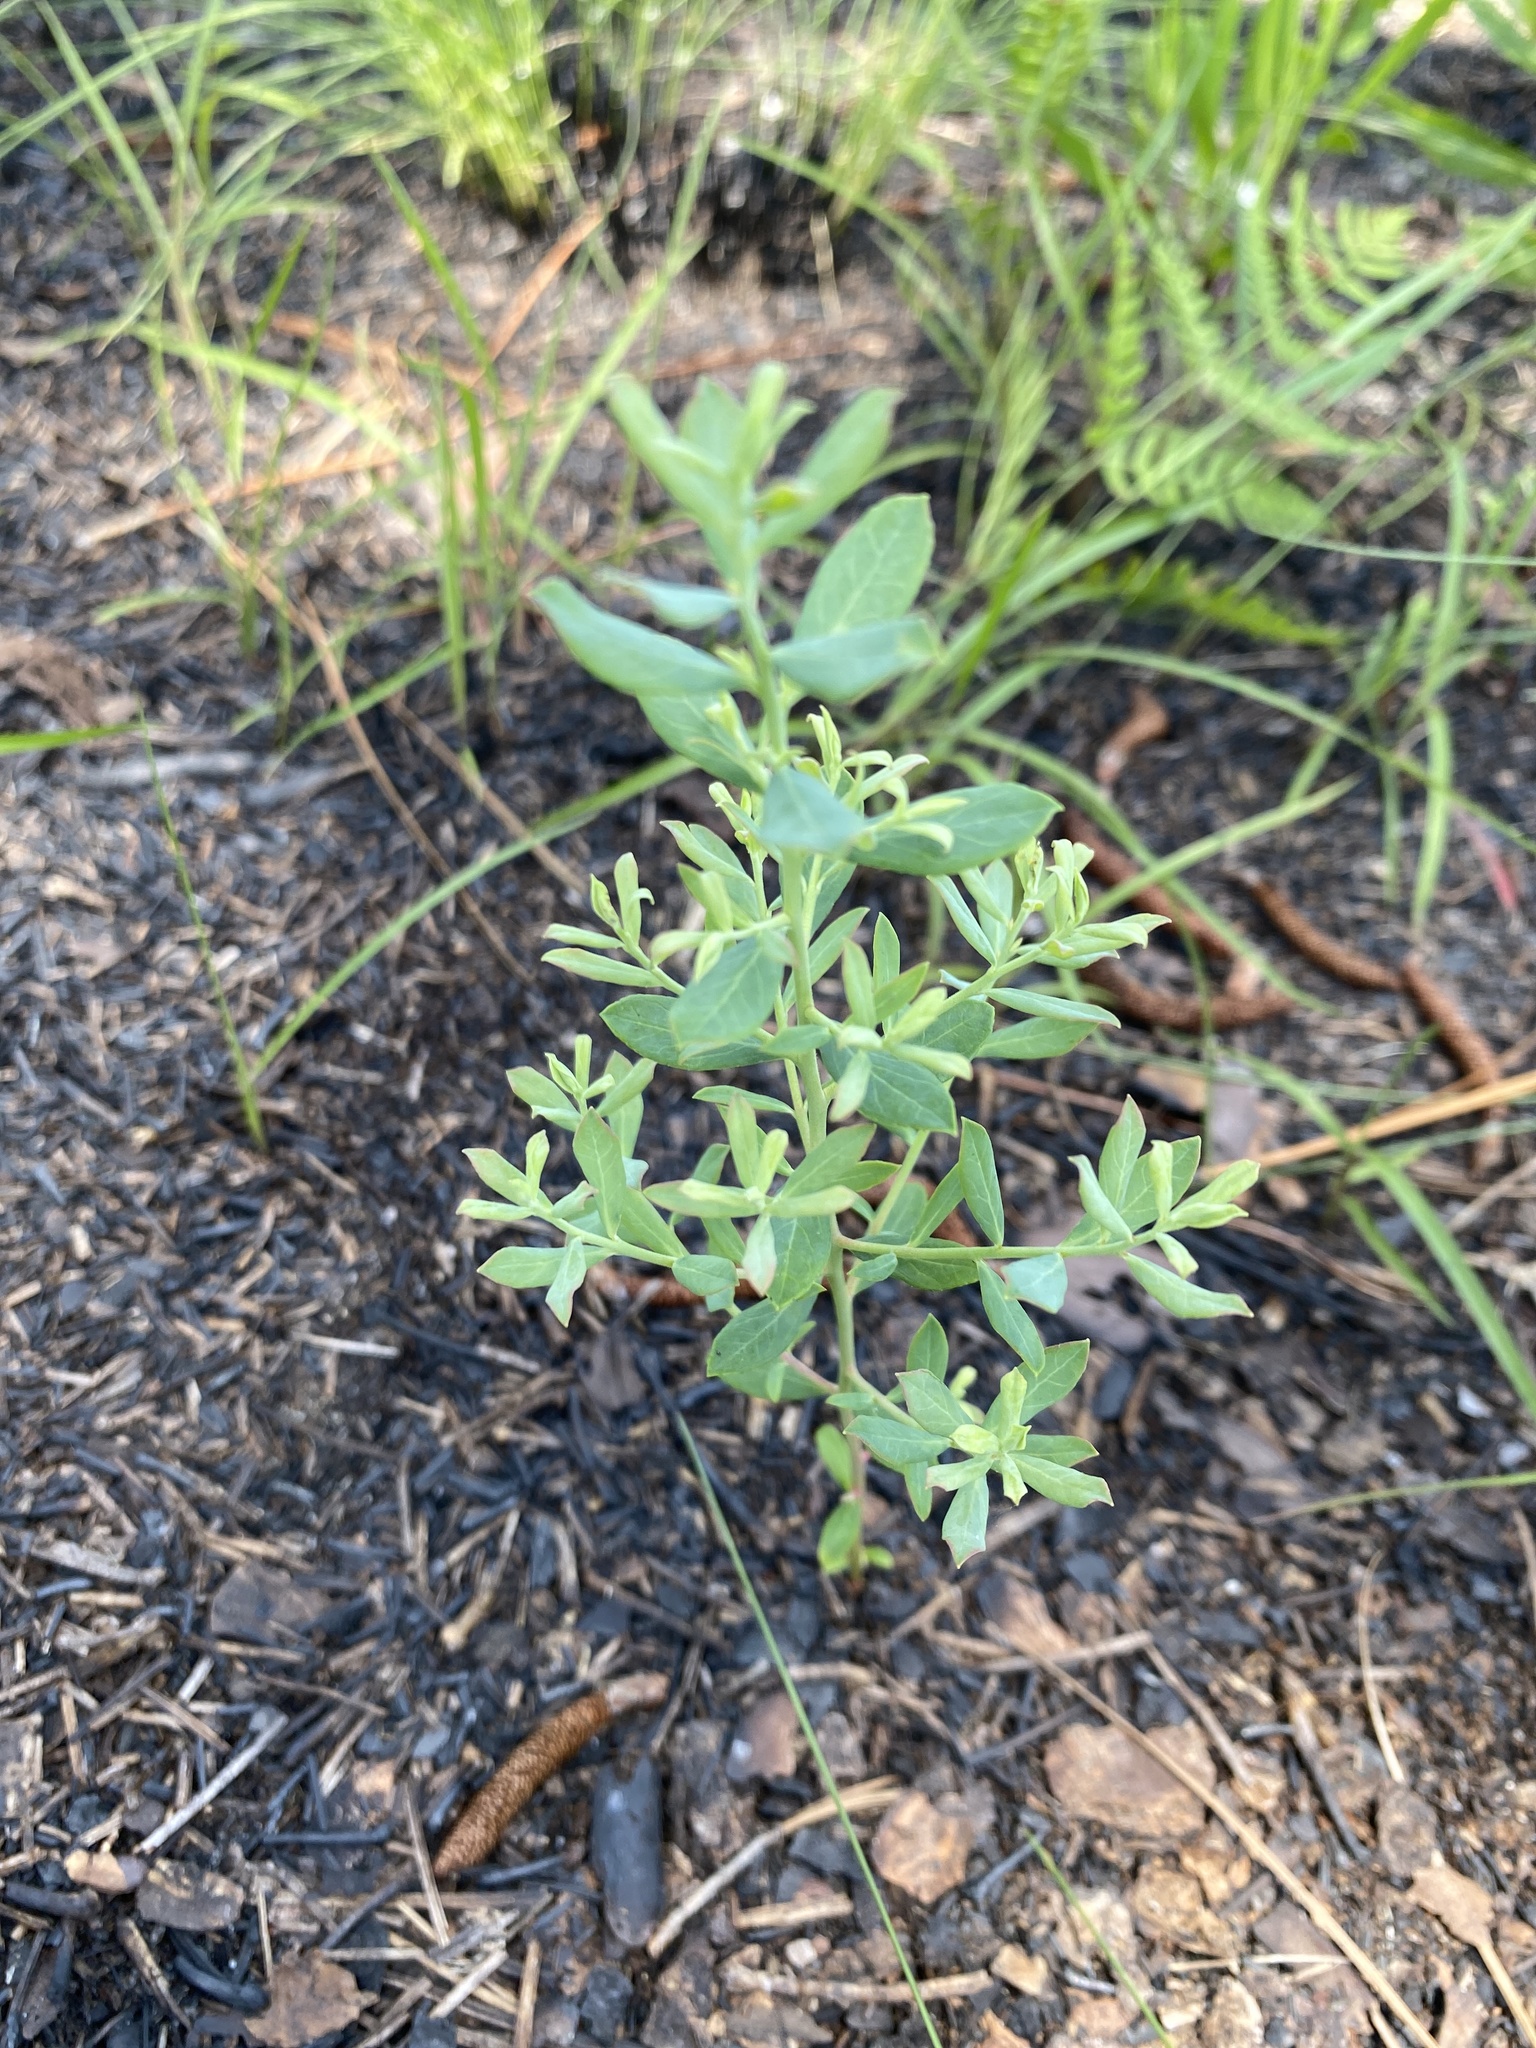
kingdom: Plantae
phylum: Tracheophyta
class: Magnoliopsida
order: Ericales
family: Ericaceae
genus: Vaccinium
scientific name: Vaccinium darrowii
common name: Darrow's blueberry
